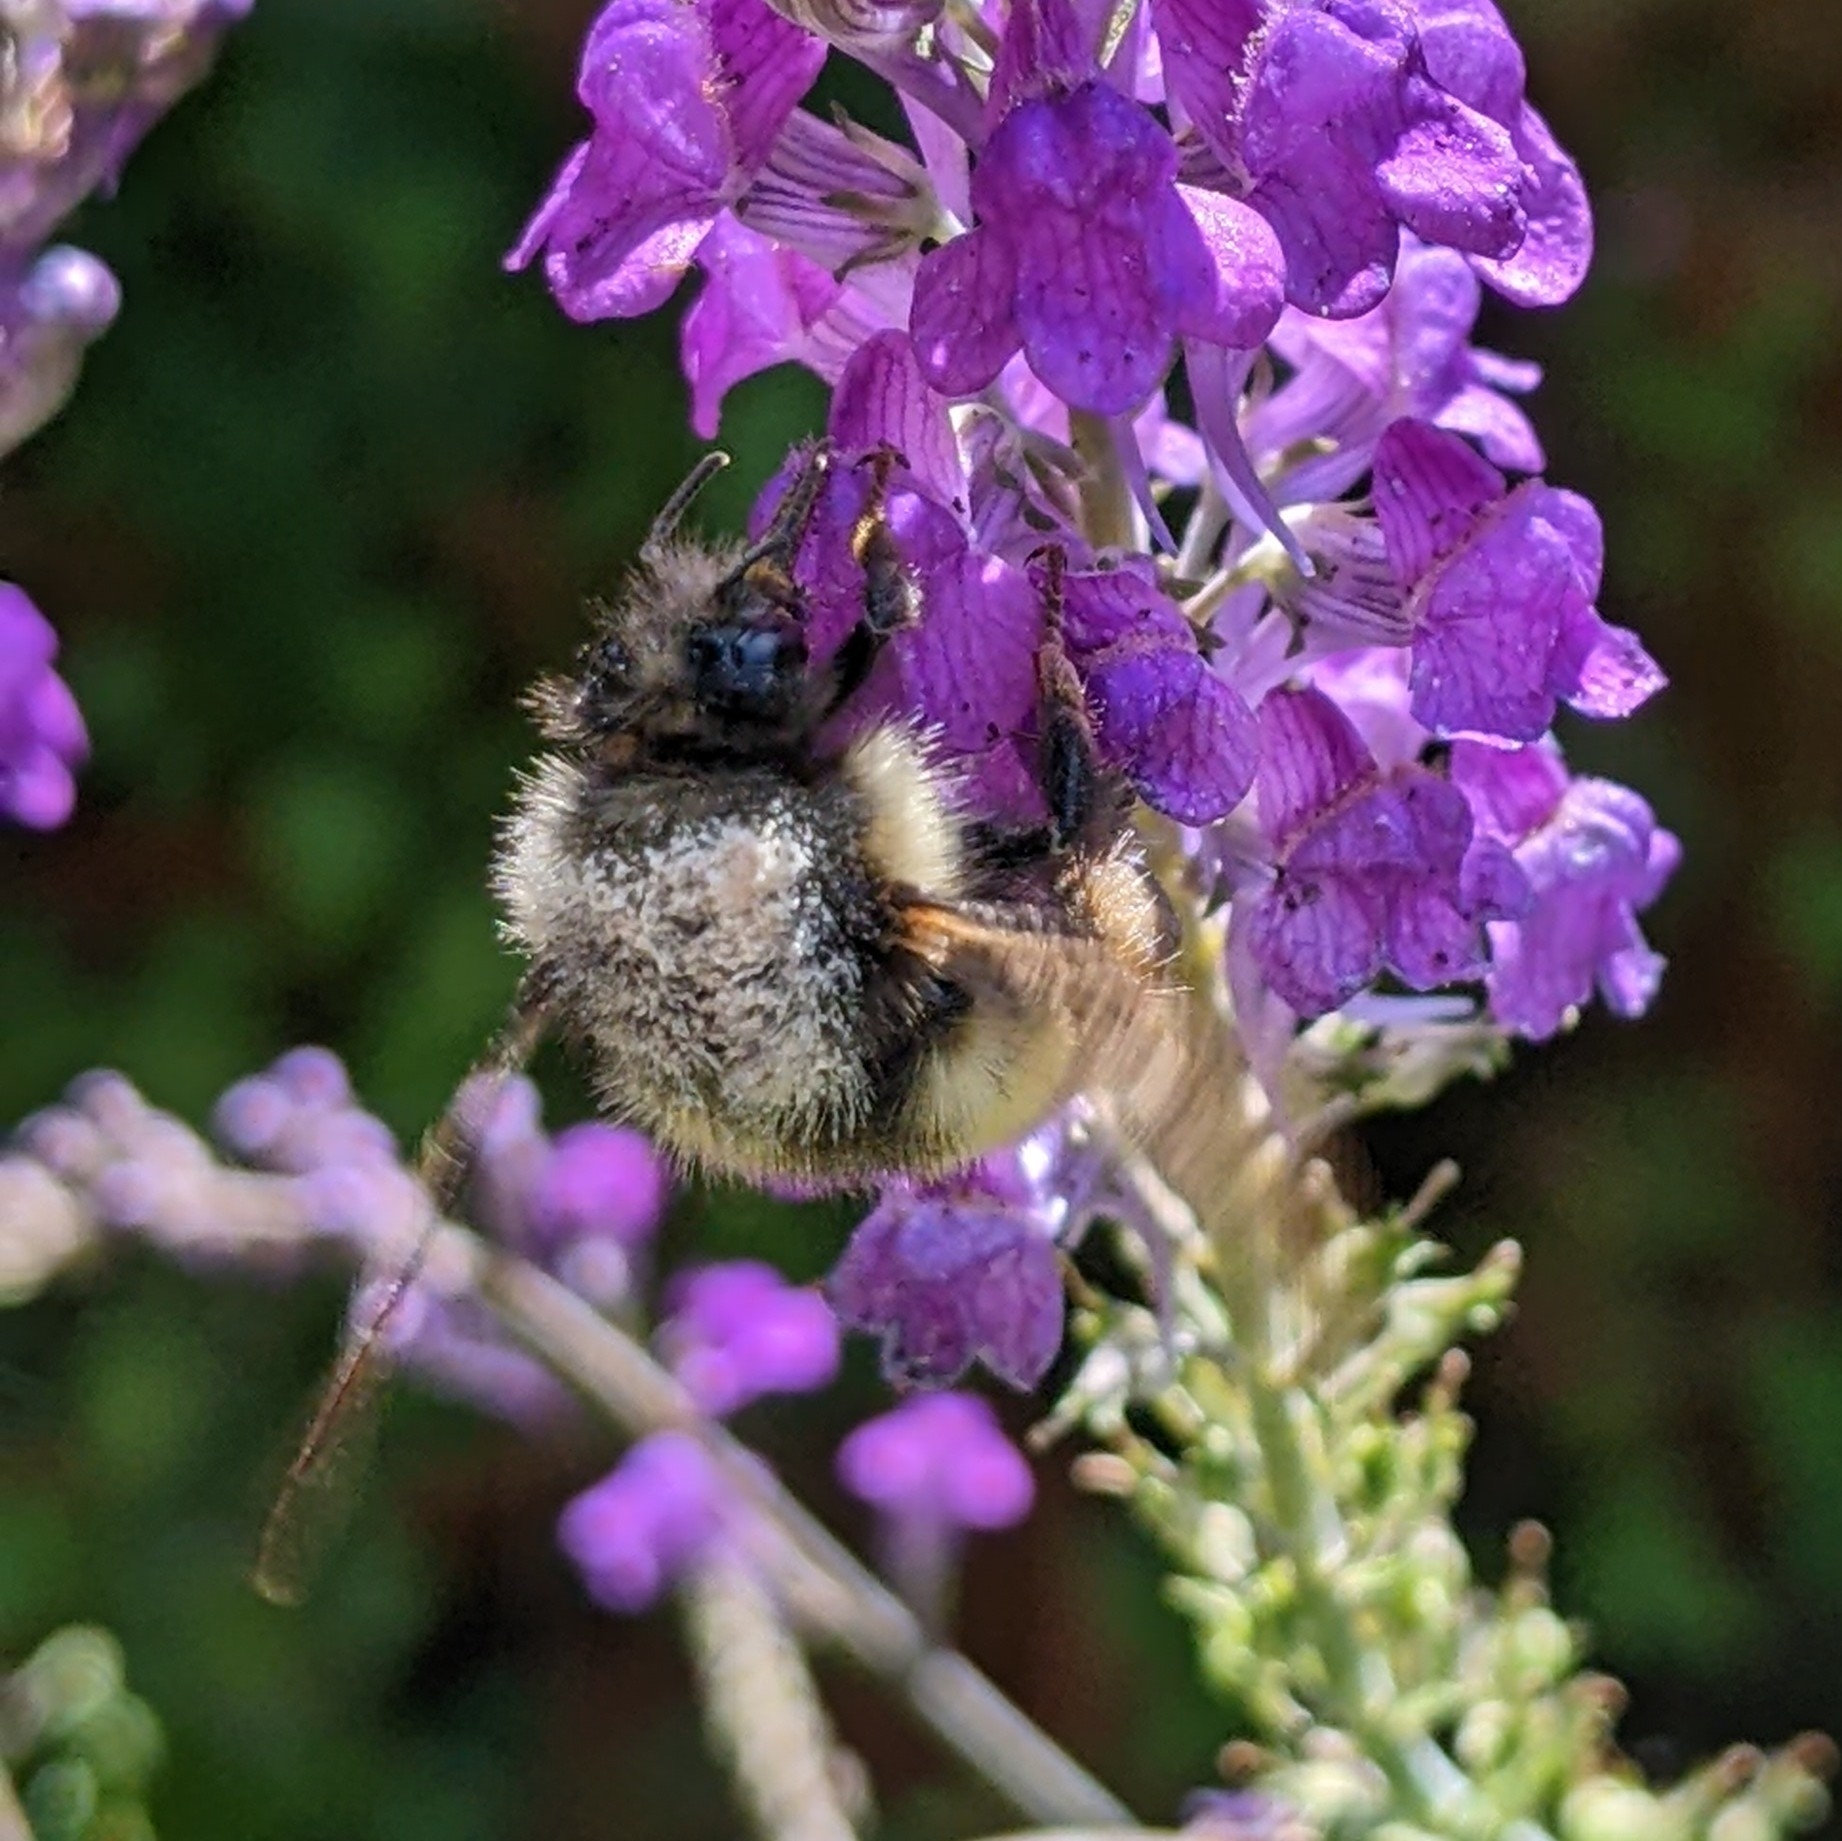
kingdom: Animalia
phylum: Arthropoda
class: Insecta
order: Hymenoptera
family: Apidae
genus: Bombus
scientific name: Bombus flavifrons
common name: Yellow head bumble bee
